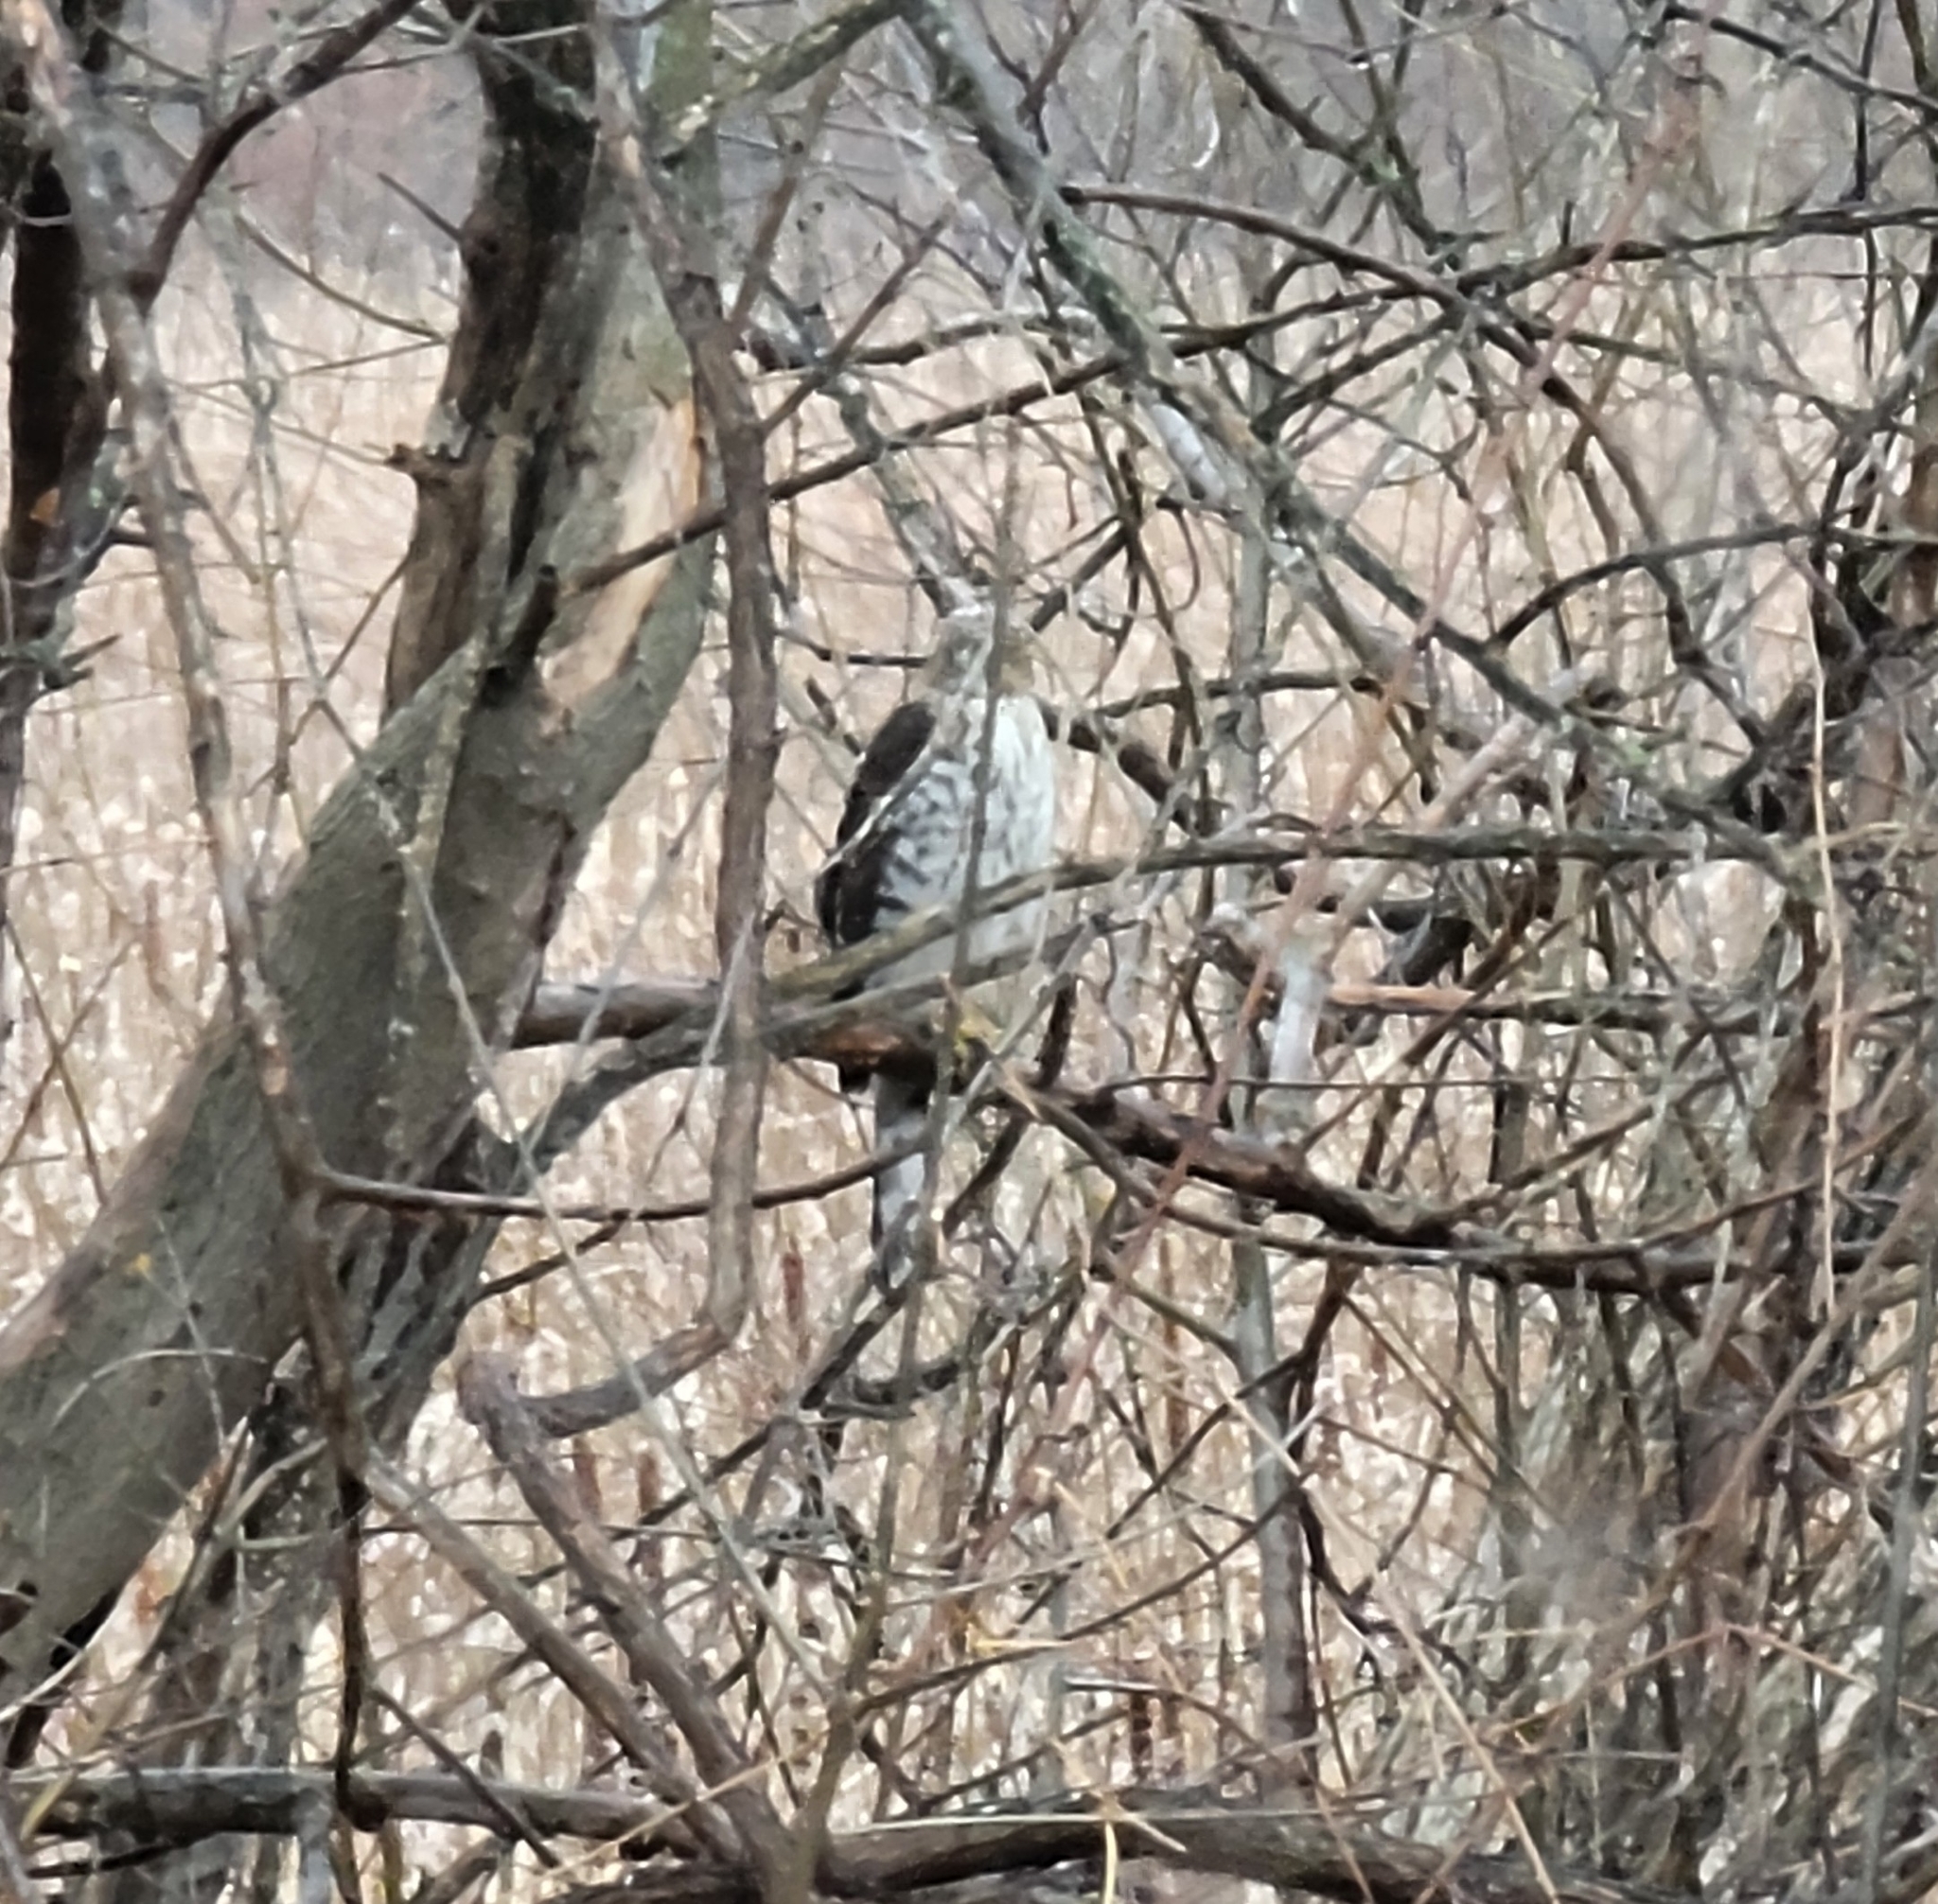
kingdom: Animalia
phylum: Chordata
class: Aves
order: Accipitriformes
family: Accipitridae
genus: Accipiter
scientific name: Accipiter cooperii
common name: Cooper's hawk
